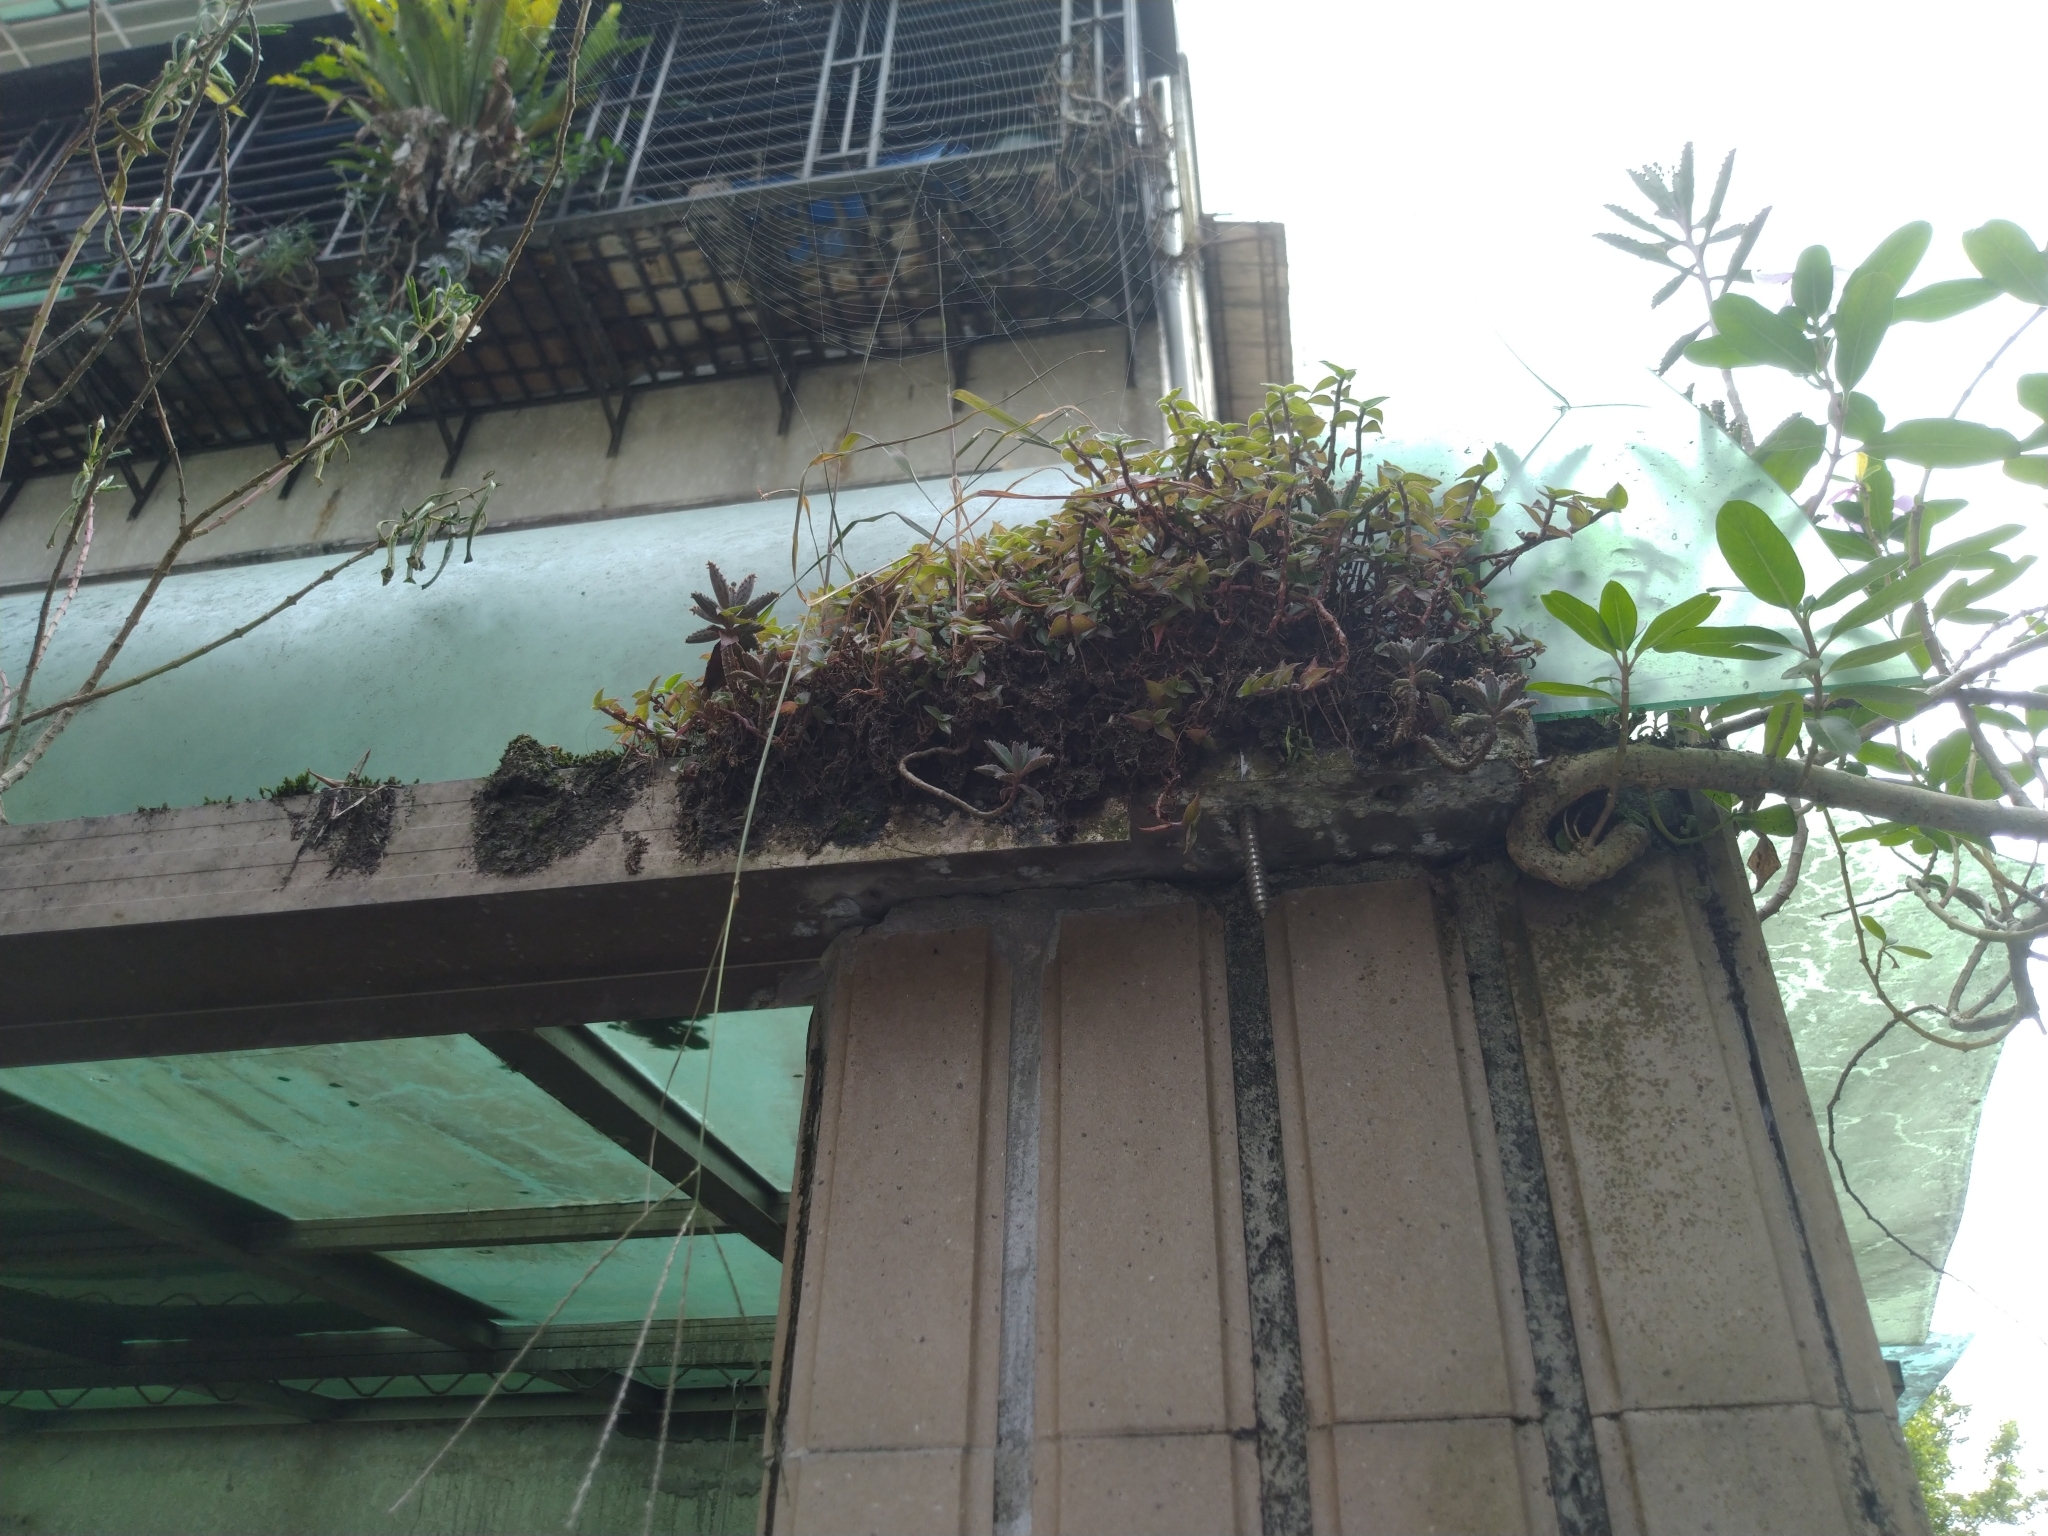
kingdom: Plantae
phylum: Tracheophyta
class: Liliopsida
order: Commelinales
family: Commelinaceae
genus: Callisia
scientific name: Callisia repens
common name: Creeping inchplant
